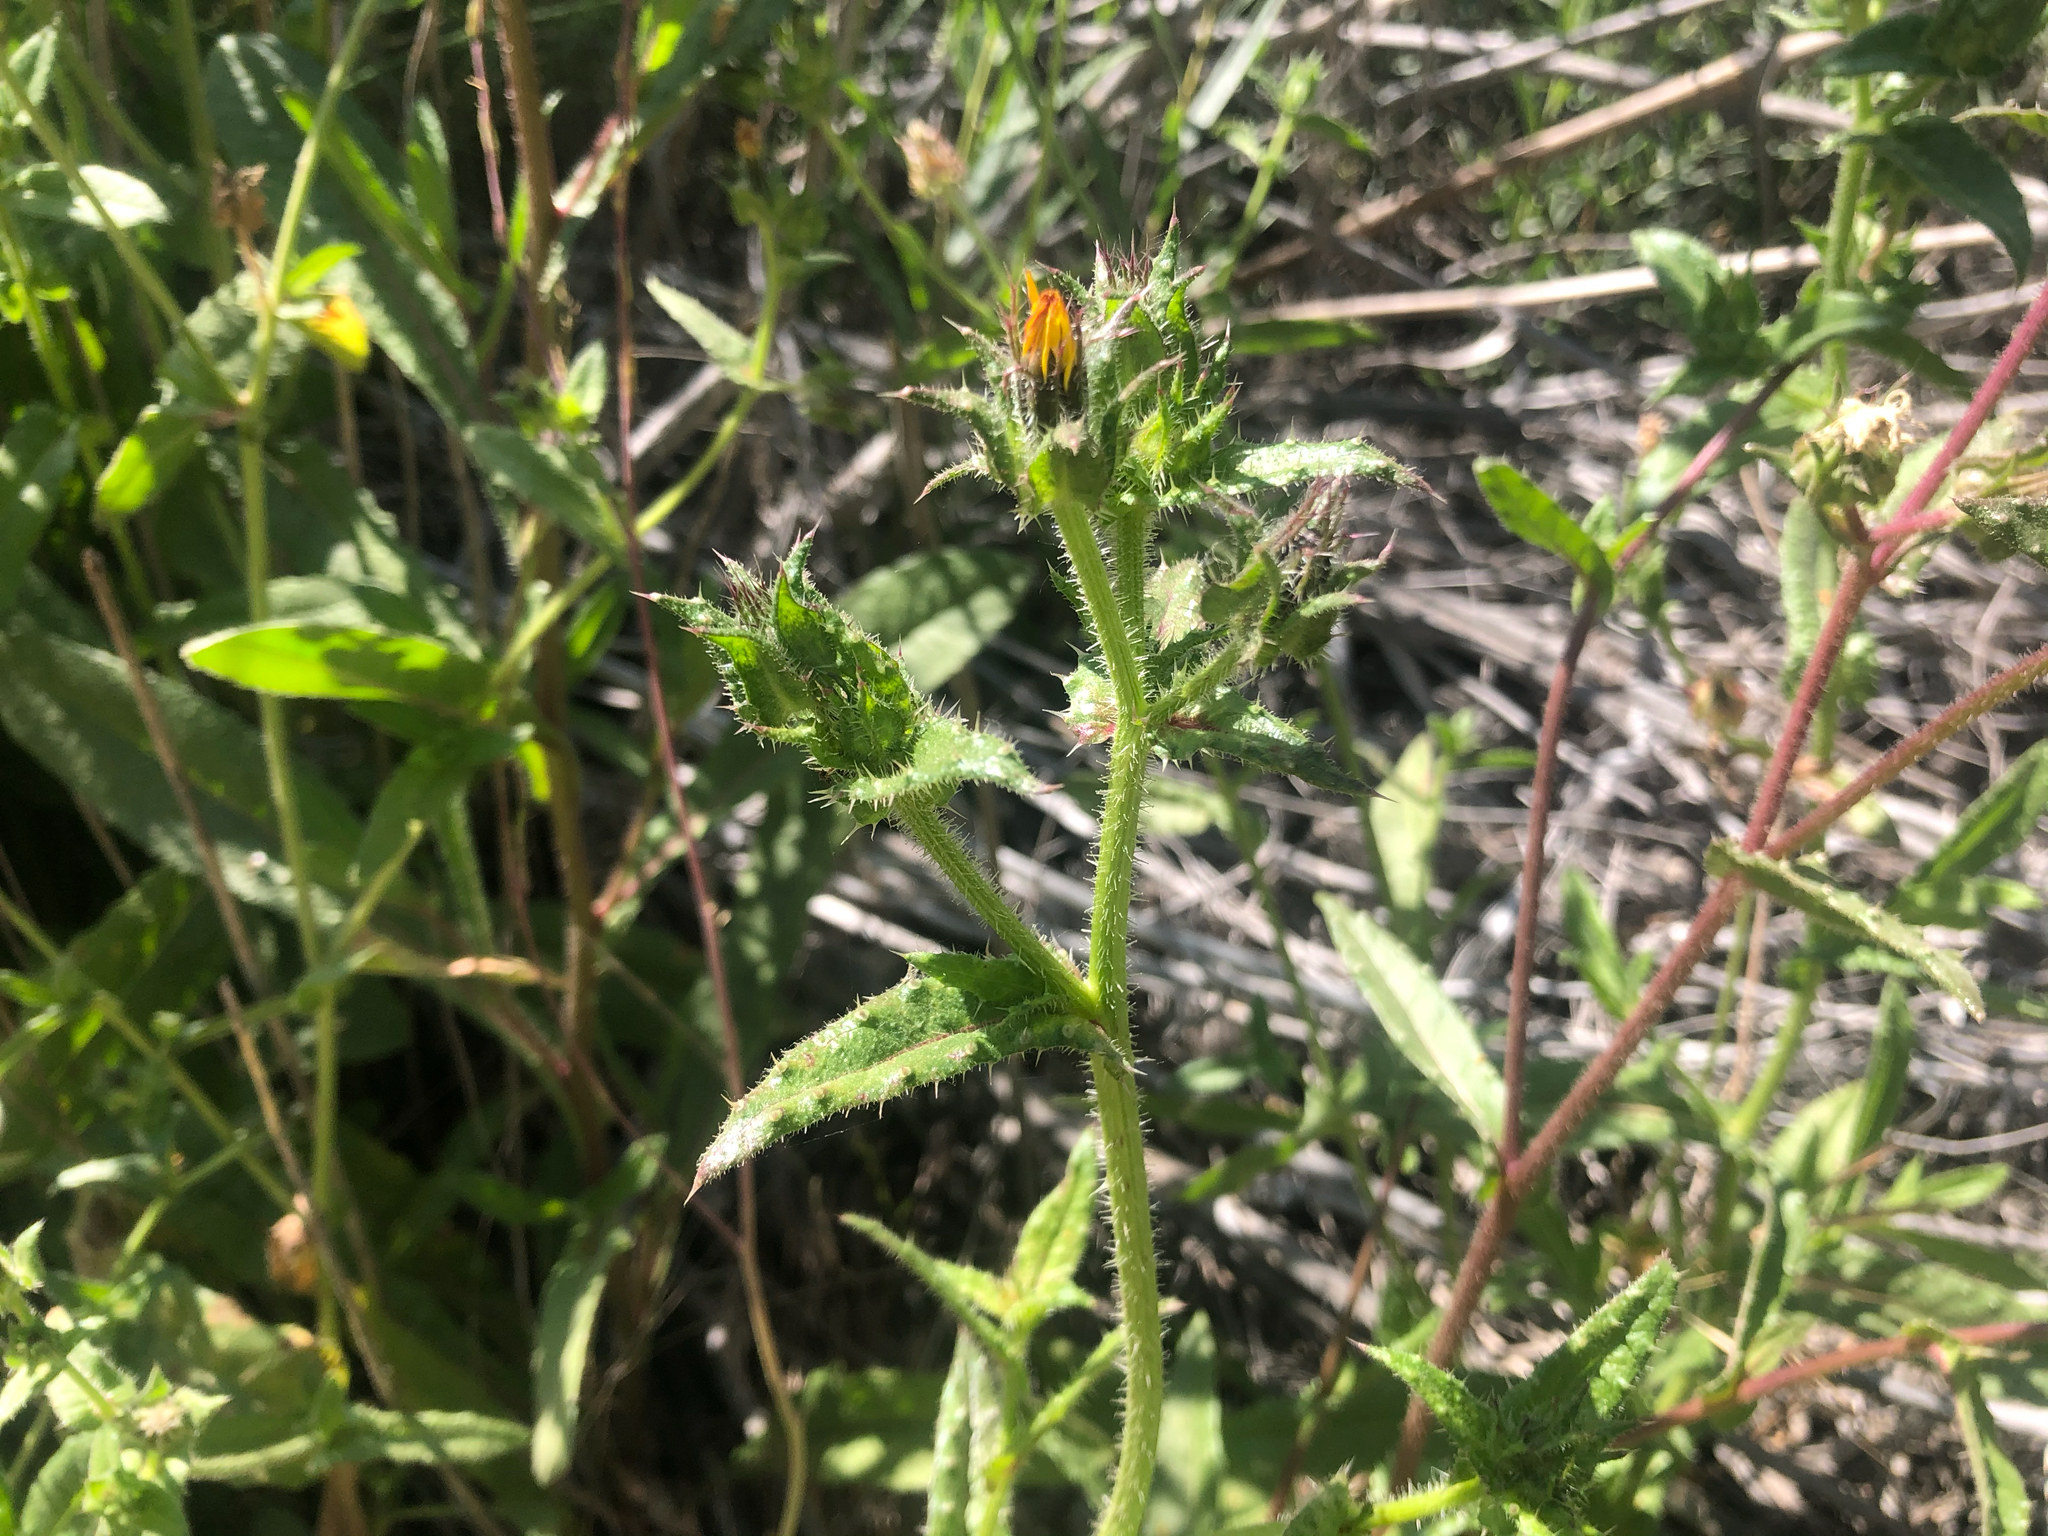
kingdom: Plantae
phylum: Tracheophyta
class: Magnoliopsida
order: Asterales
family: Asteraceae
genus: Helminthotheca
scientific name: Helminthotheca echioides
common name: Ox-tongue
